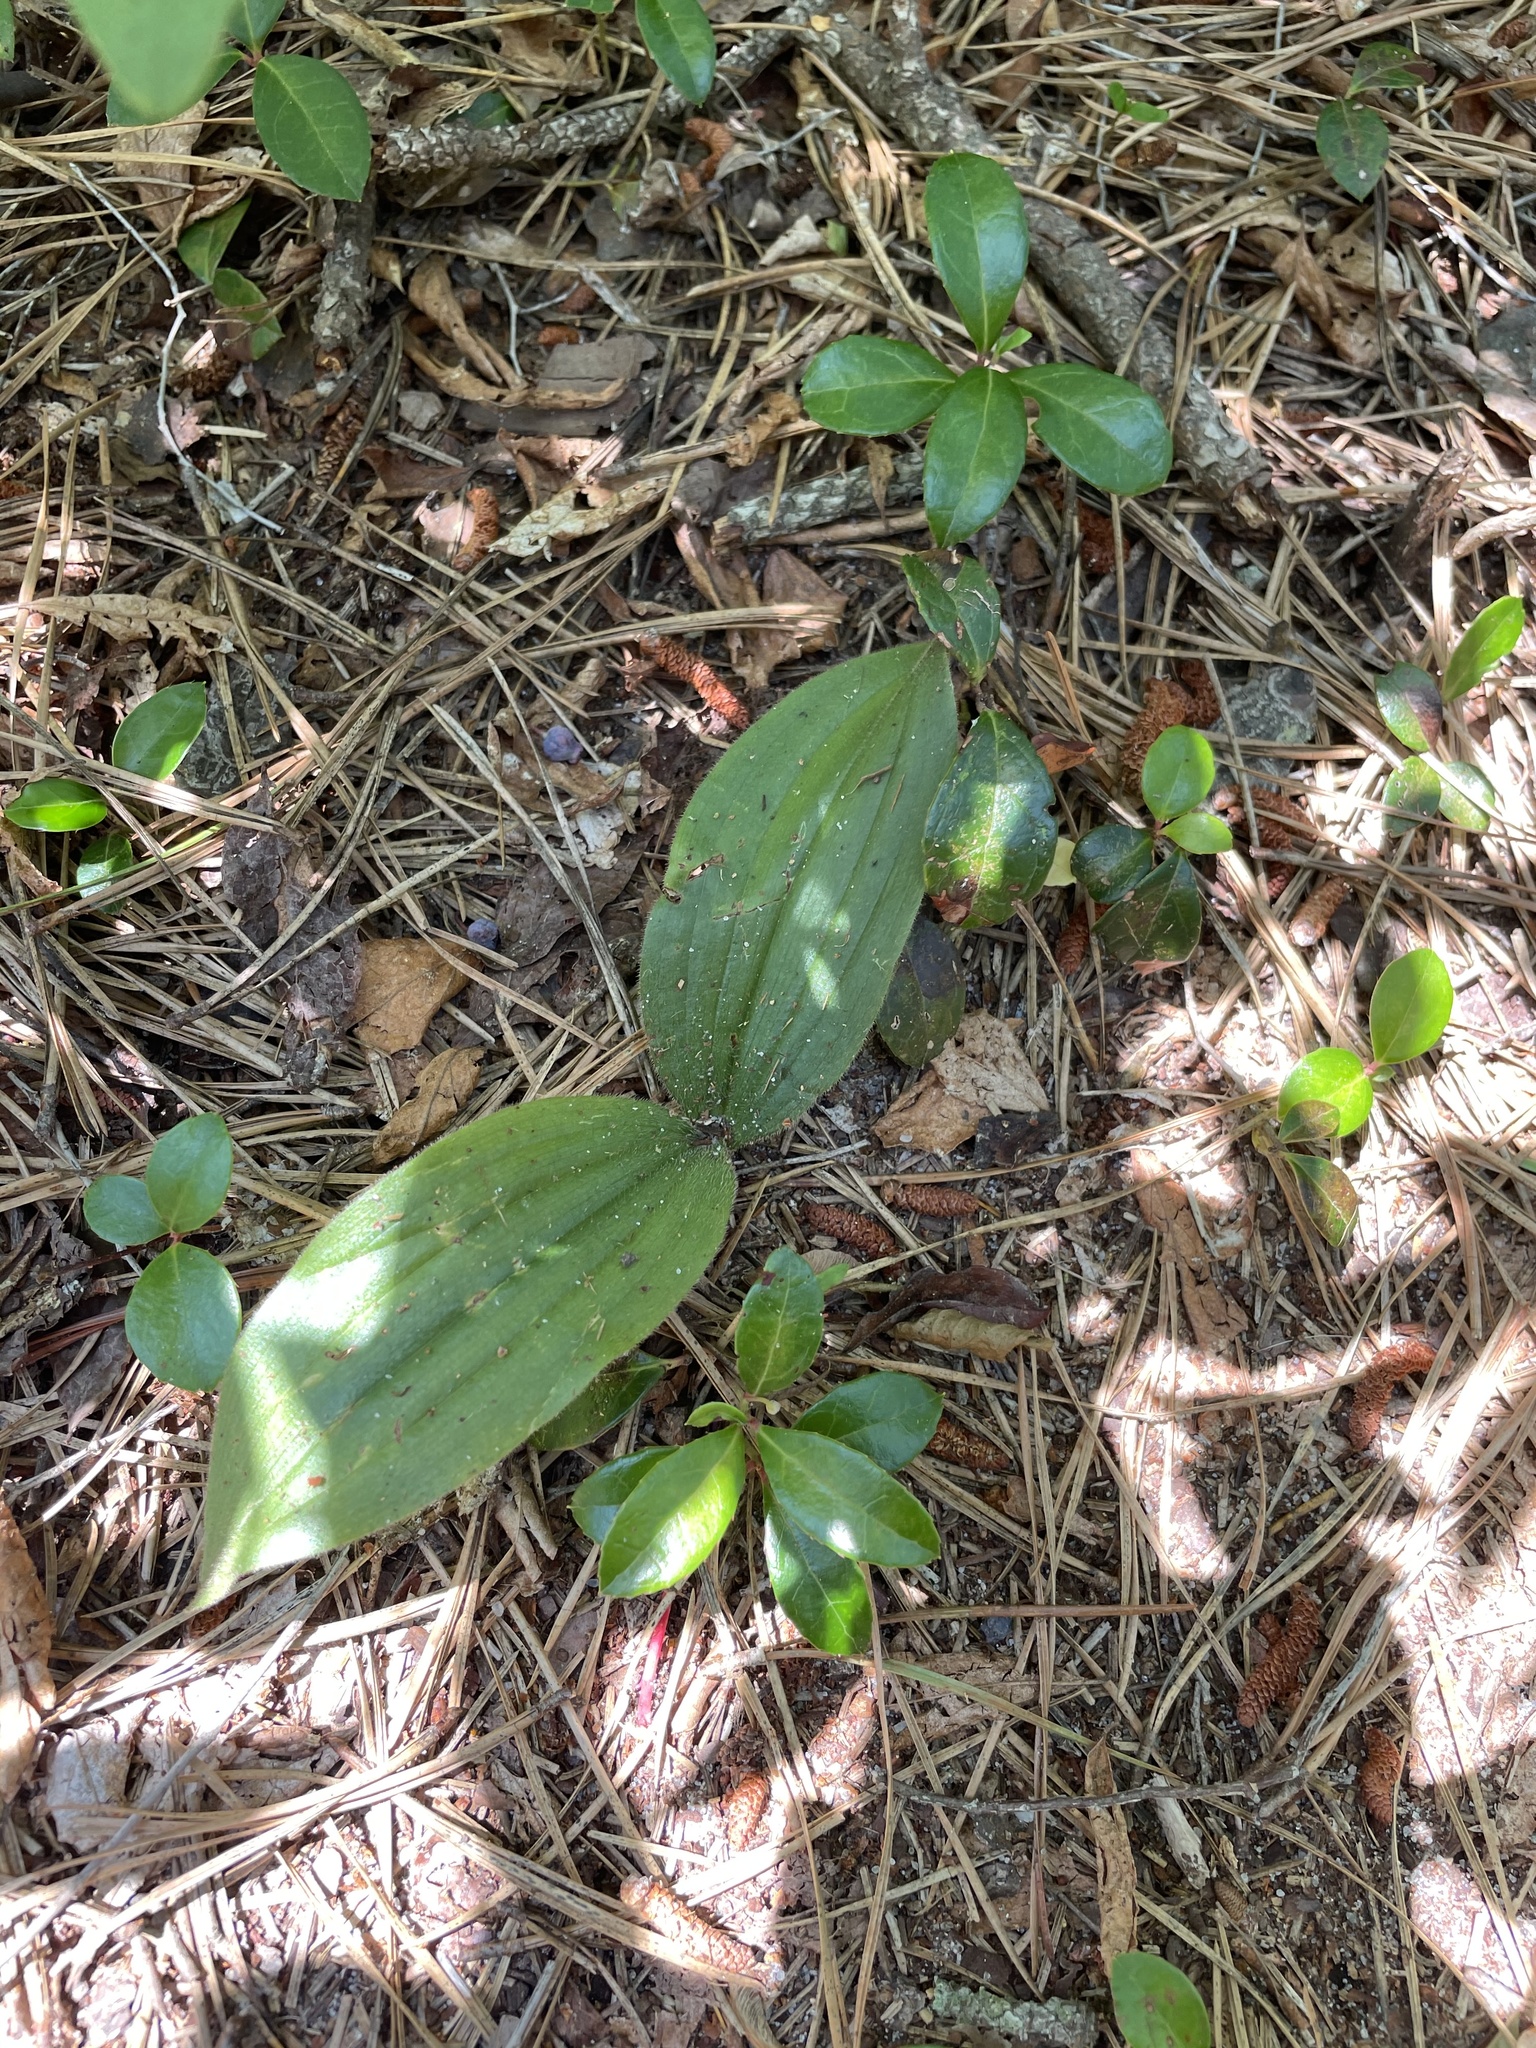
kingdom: Plantae
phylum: Tracheophyta
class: Liliopsida
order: Asparagales
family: Orchidaceae
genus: Cypripedium
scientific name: Cypripedium acaule
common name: Pink lady's-slipper
